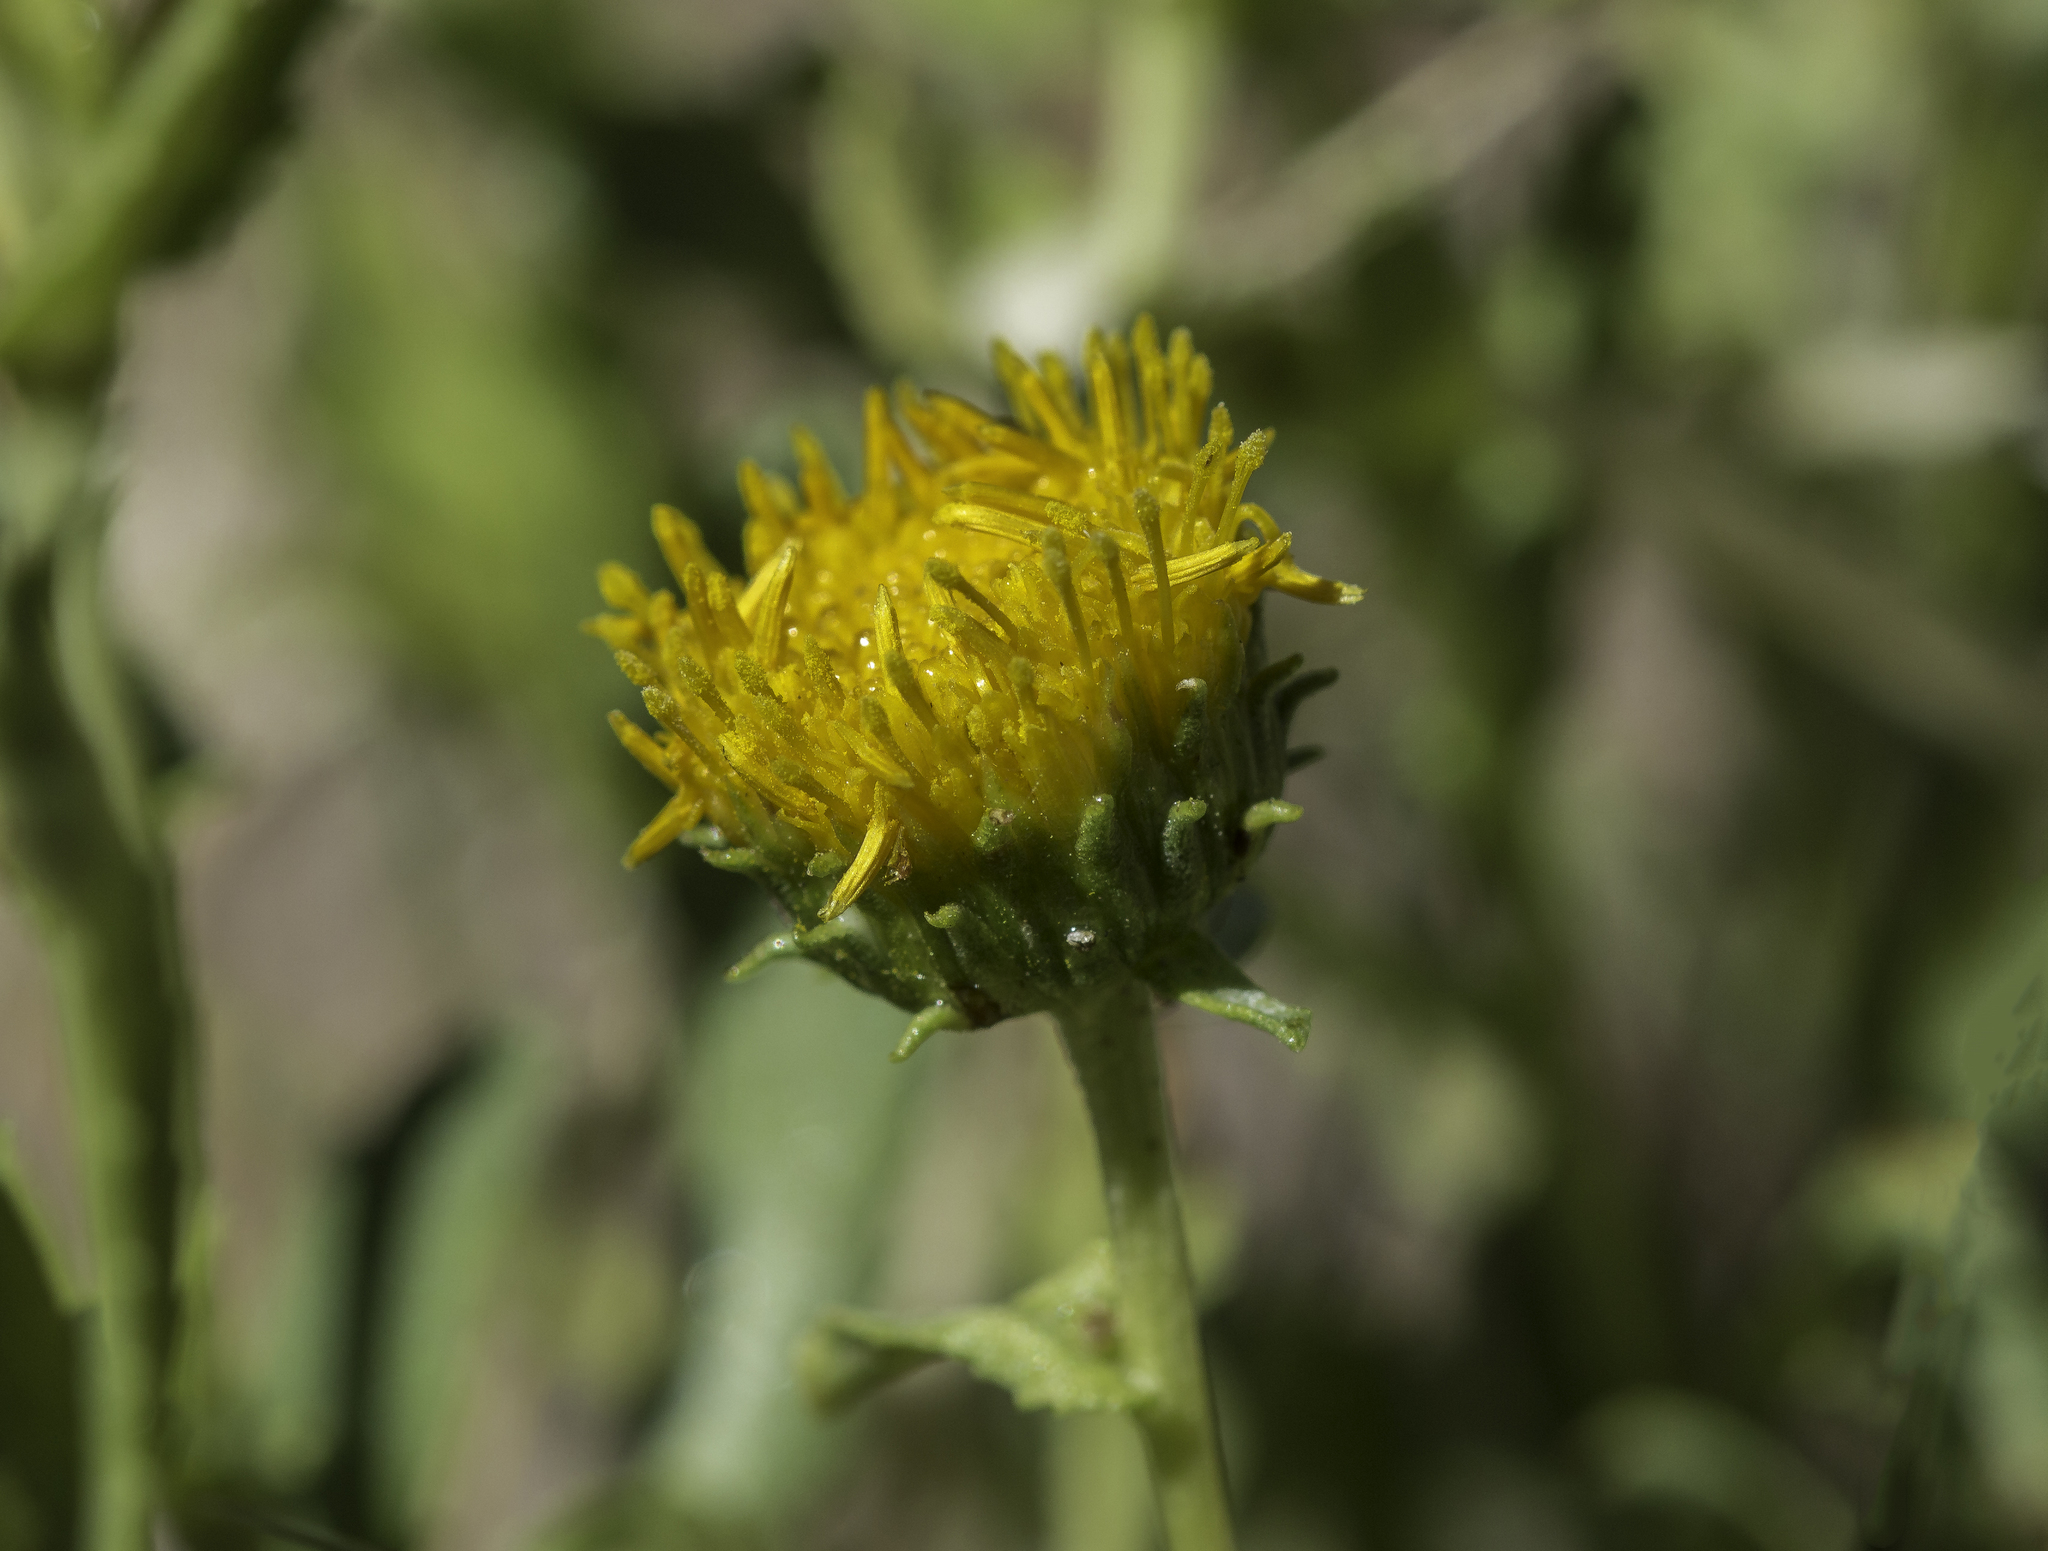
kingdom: Plantae
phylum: Tracheophyta
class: Magnoliopsida
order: Asterales
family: Asteraceae
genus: Grindelia
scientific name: Grindelia nuda
